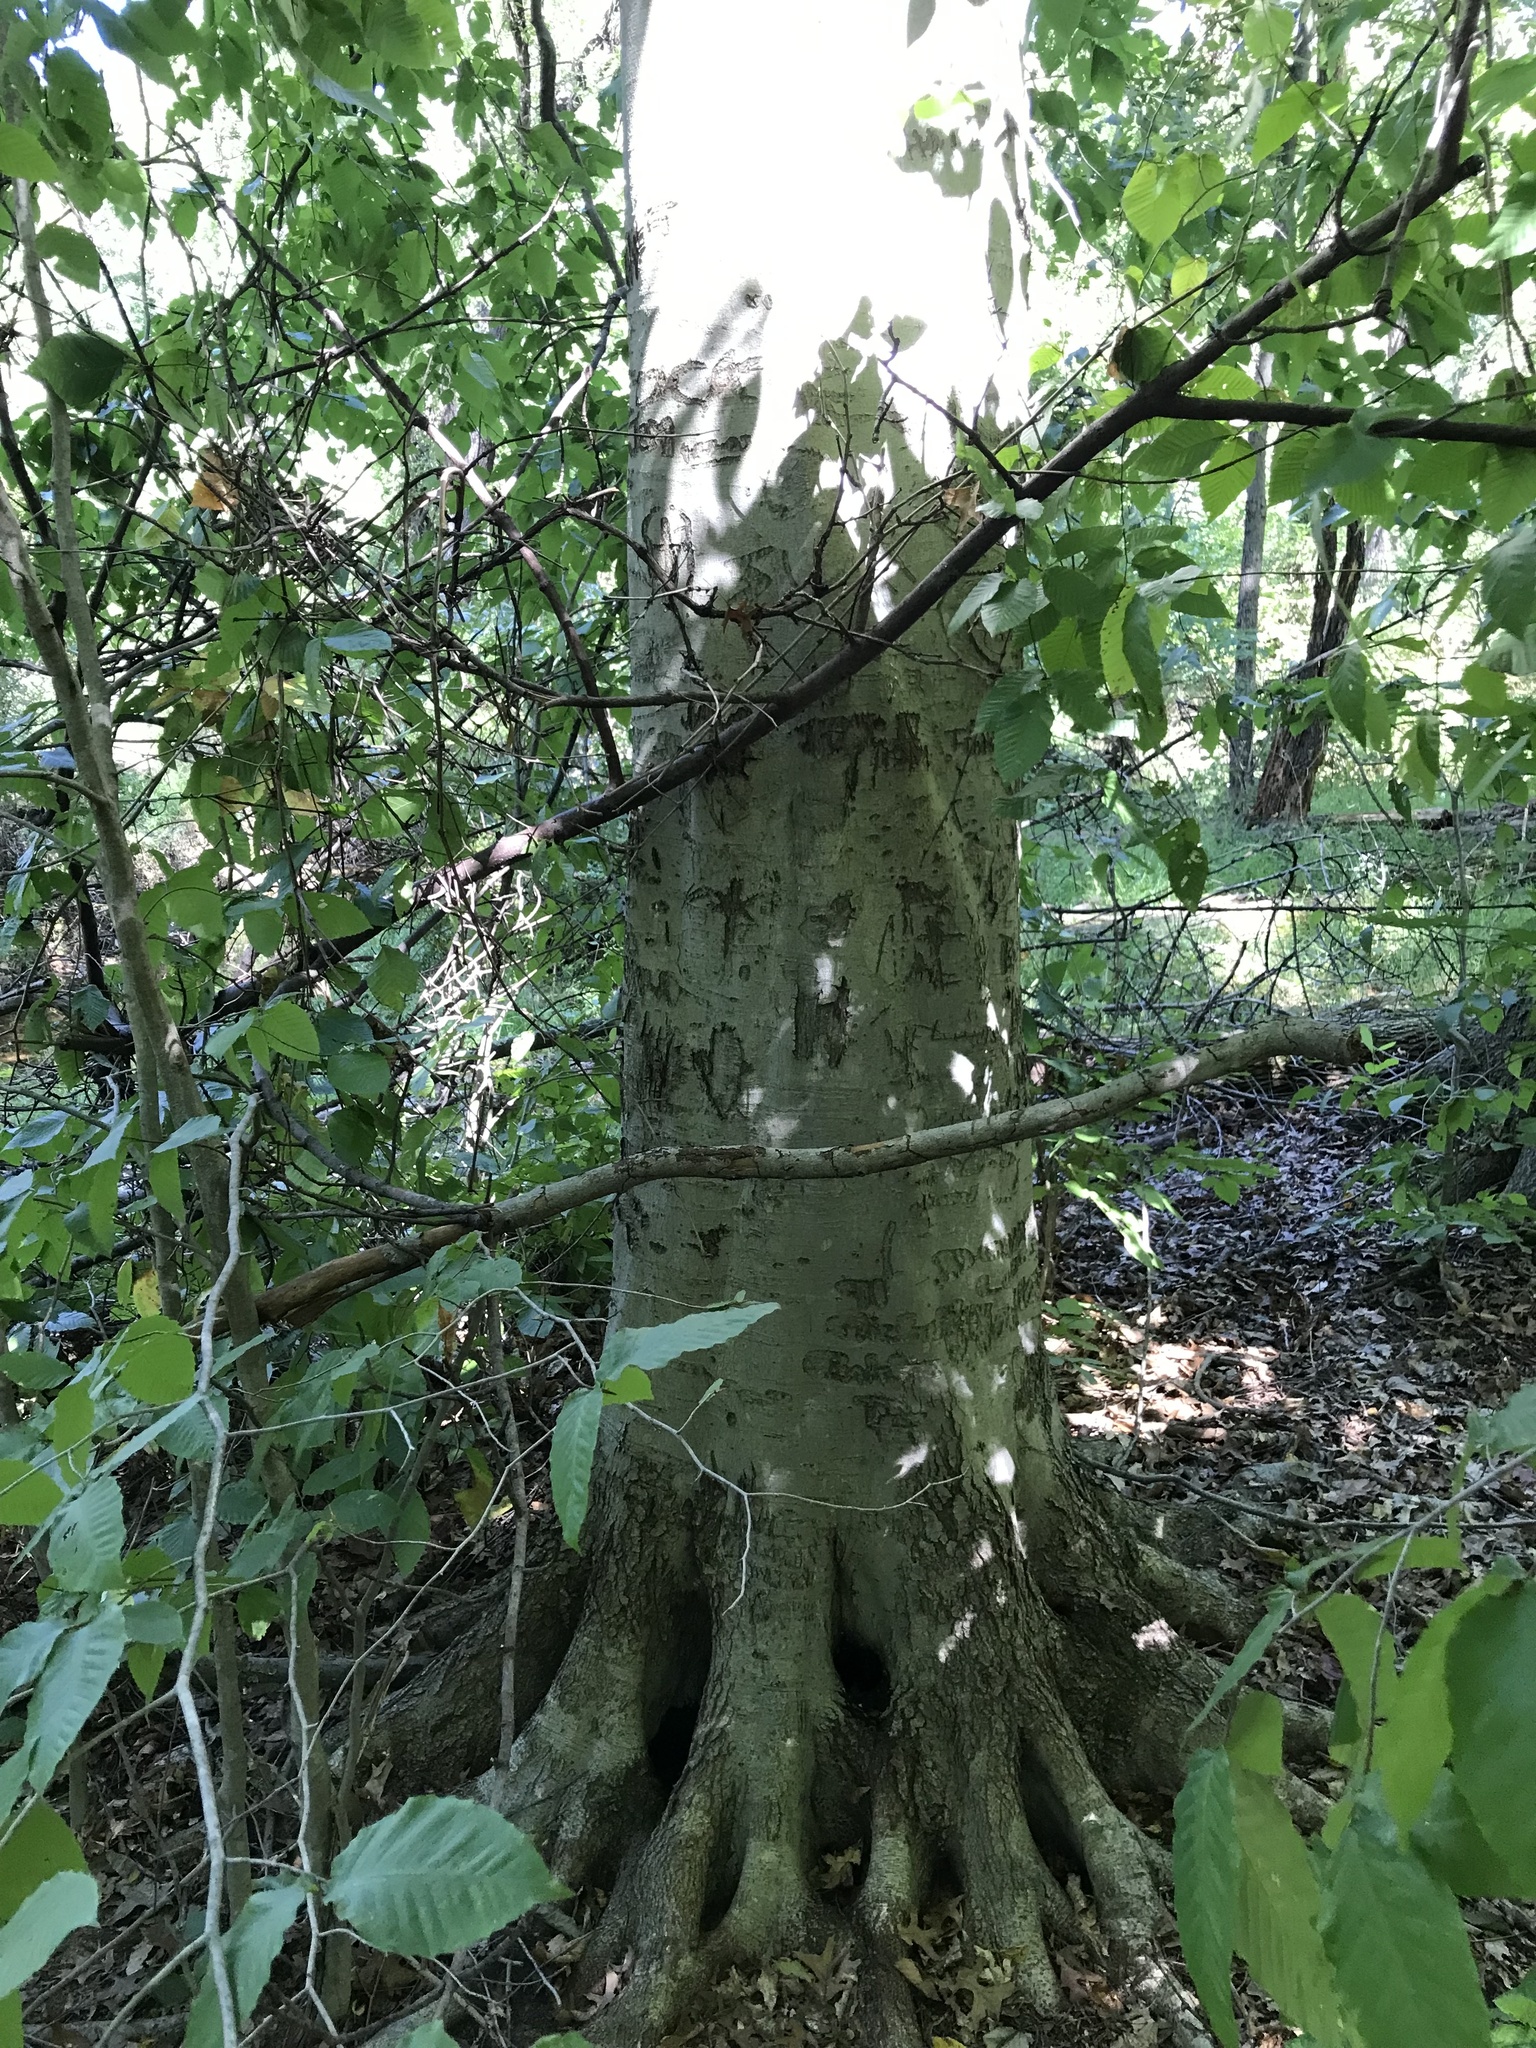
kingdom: Plantae
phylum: Tracheophyta
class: Magnoliopsida
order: Fagales
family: Fagaceae
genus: Fagus
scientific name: Fagus grandifolia
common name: American beech
